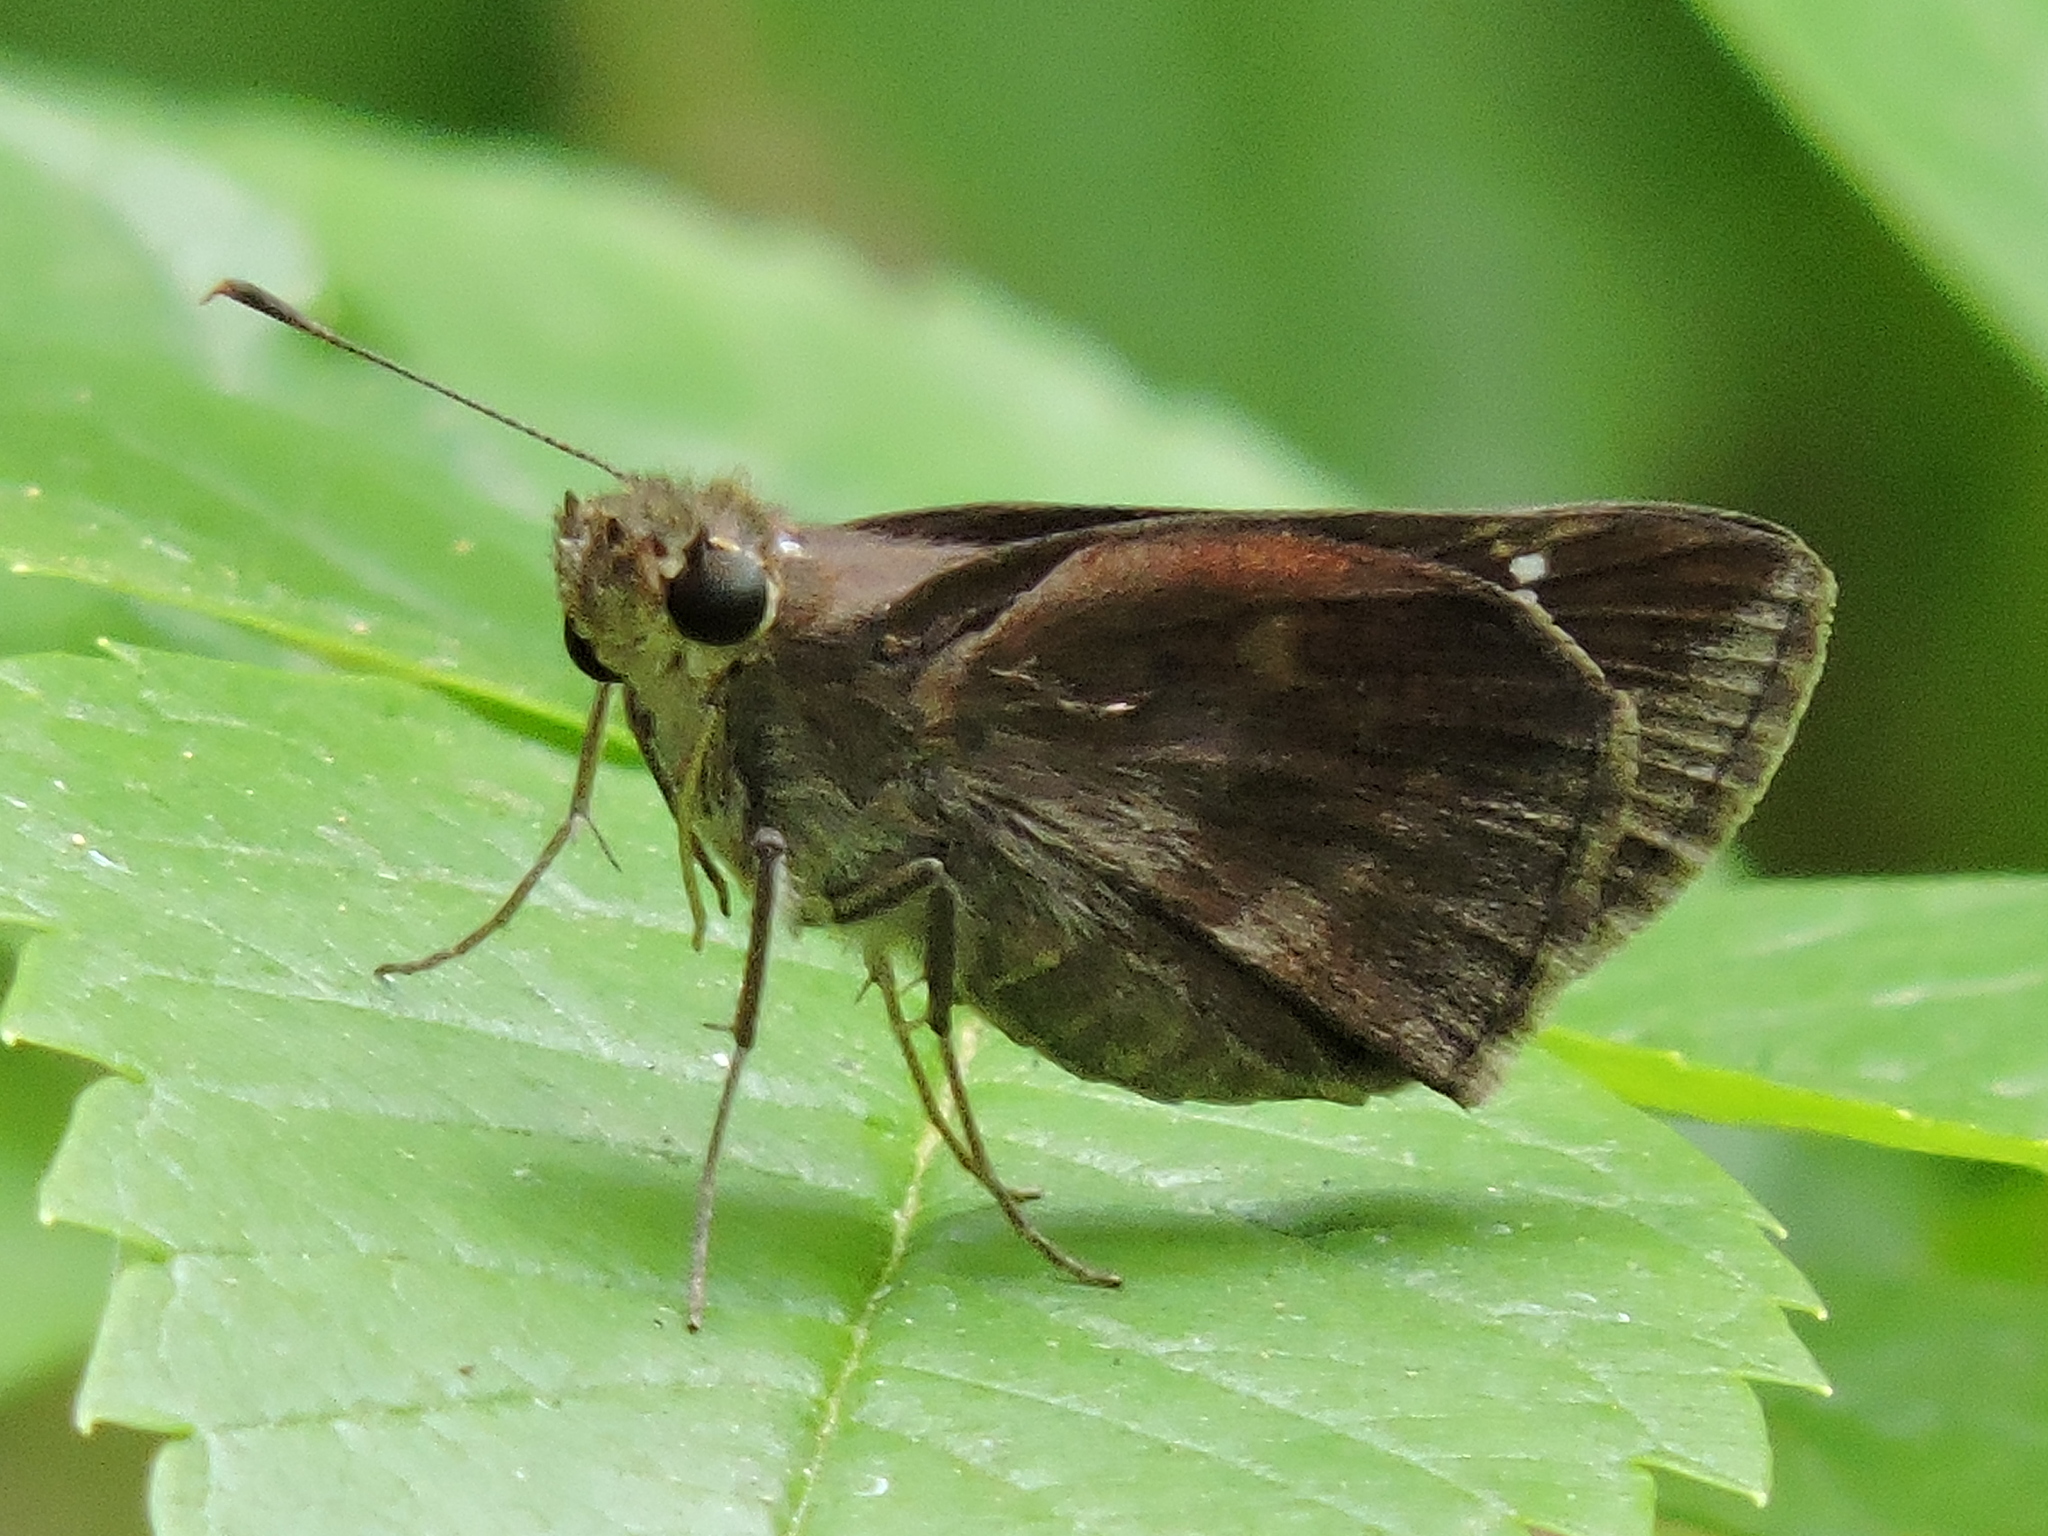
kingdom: Animalia
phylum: Arthropoda
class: Insecta
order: Lepidoptera
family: Hesperiidae
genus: Lerema
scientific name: Lerema accius
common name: Clouded skipper
